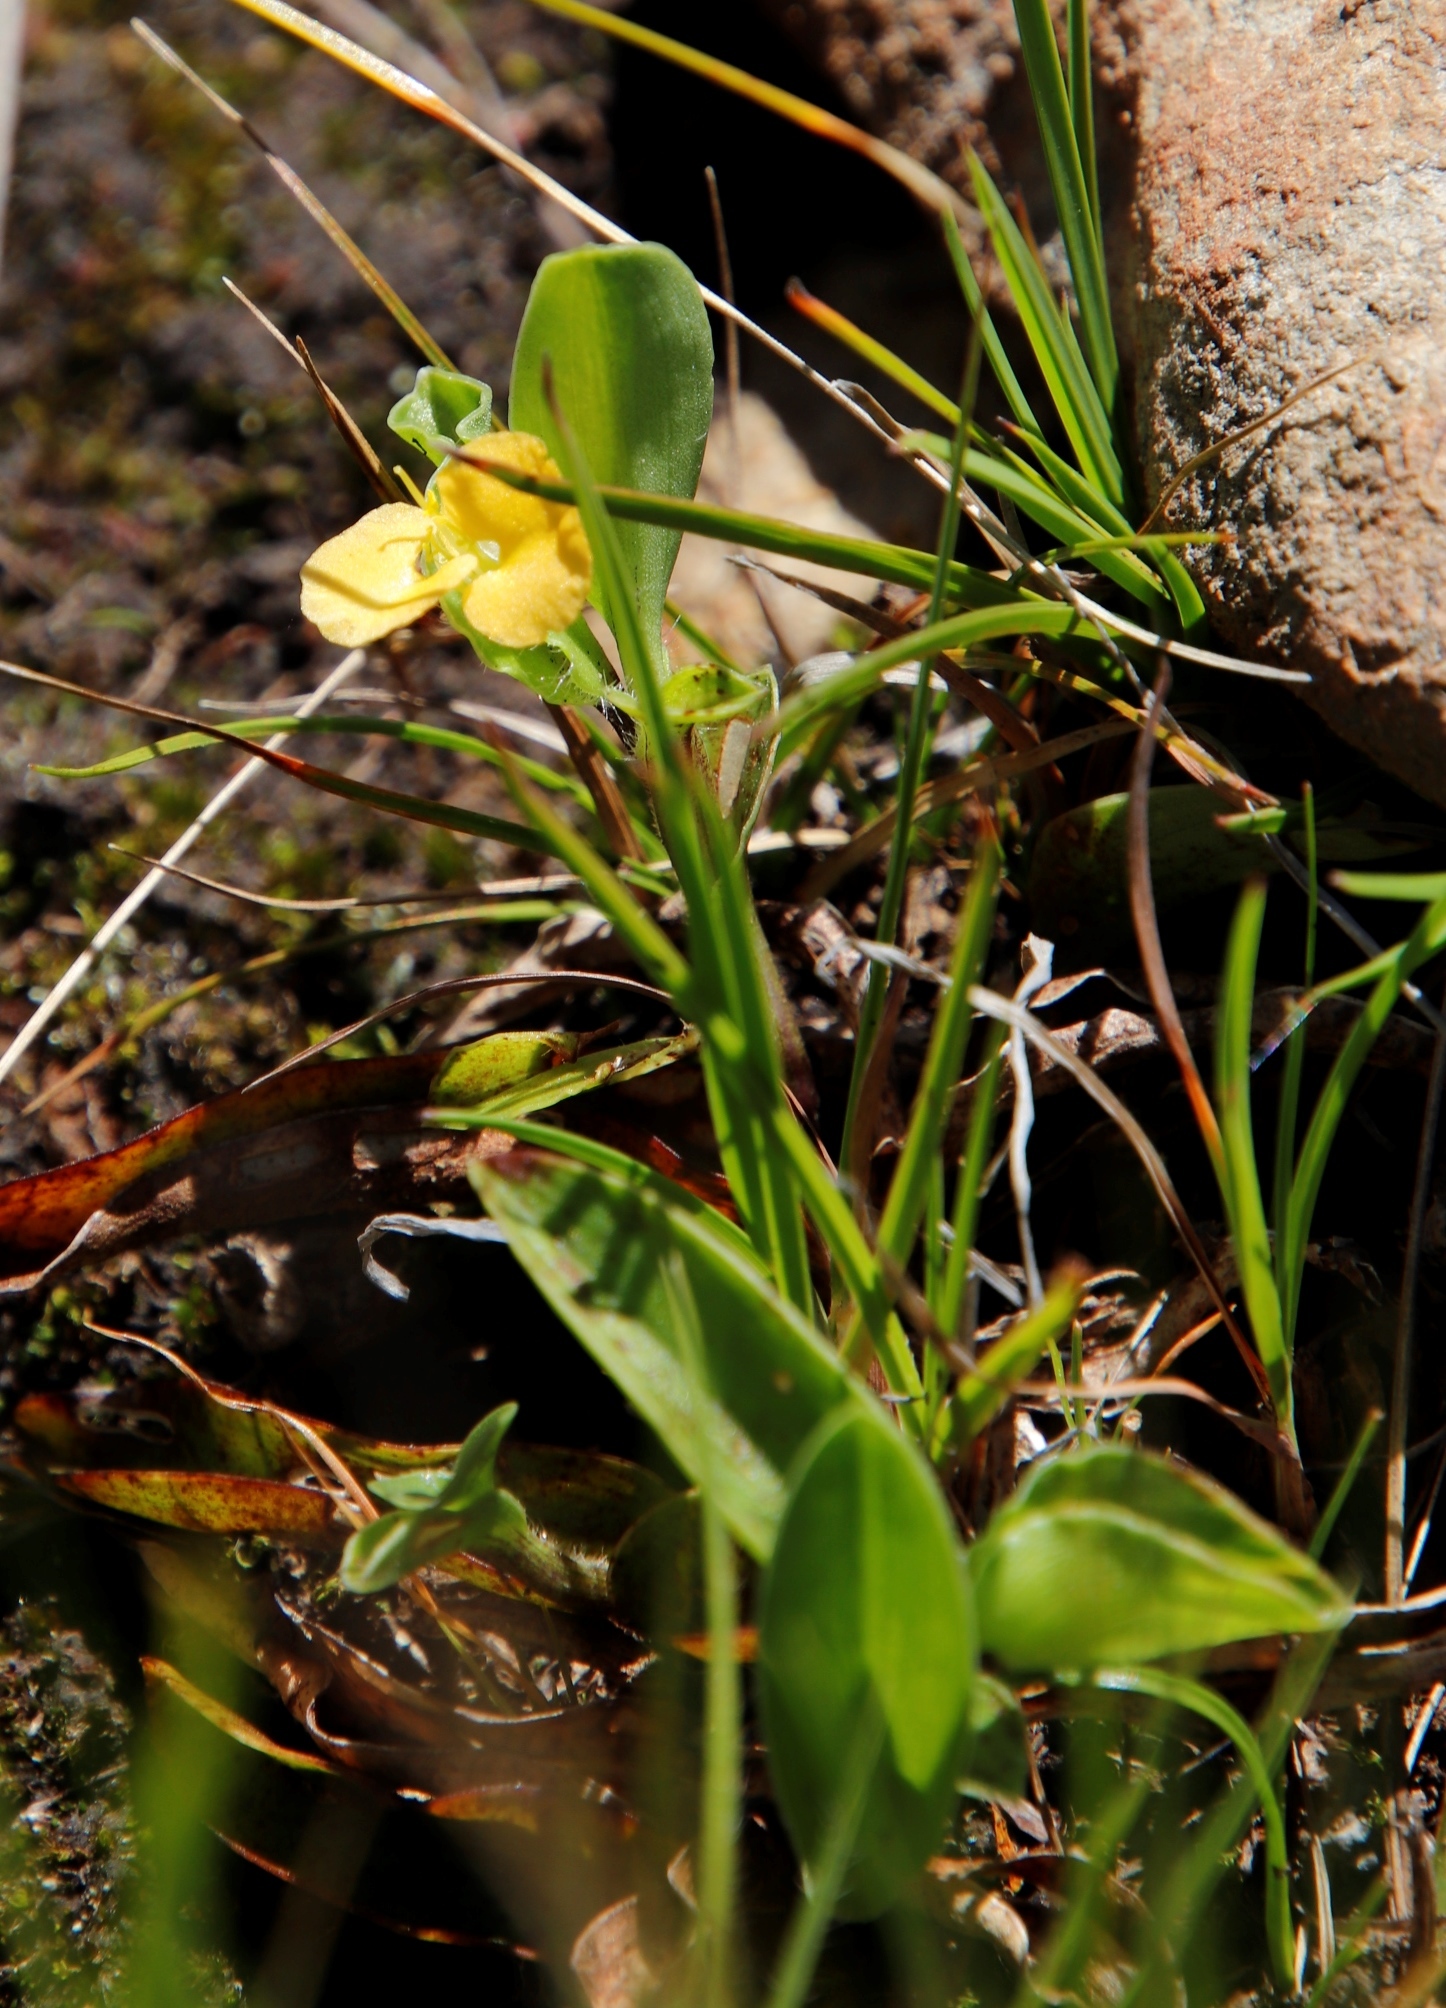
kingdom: Plantae
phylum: Tracheophyta
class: Liliopsida
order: Commelinales
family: Commelinaceae
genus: Commelina
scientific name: Commelina africana
